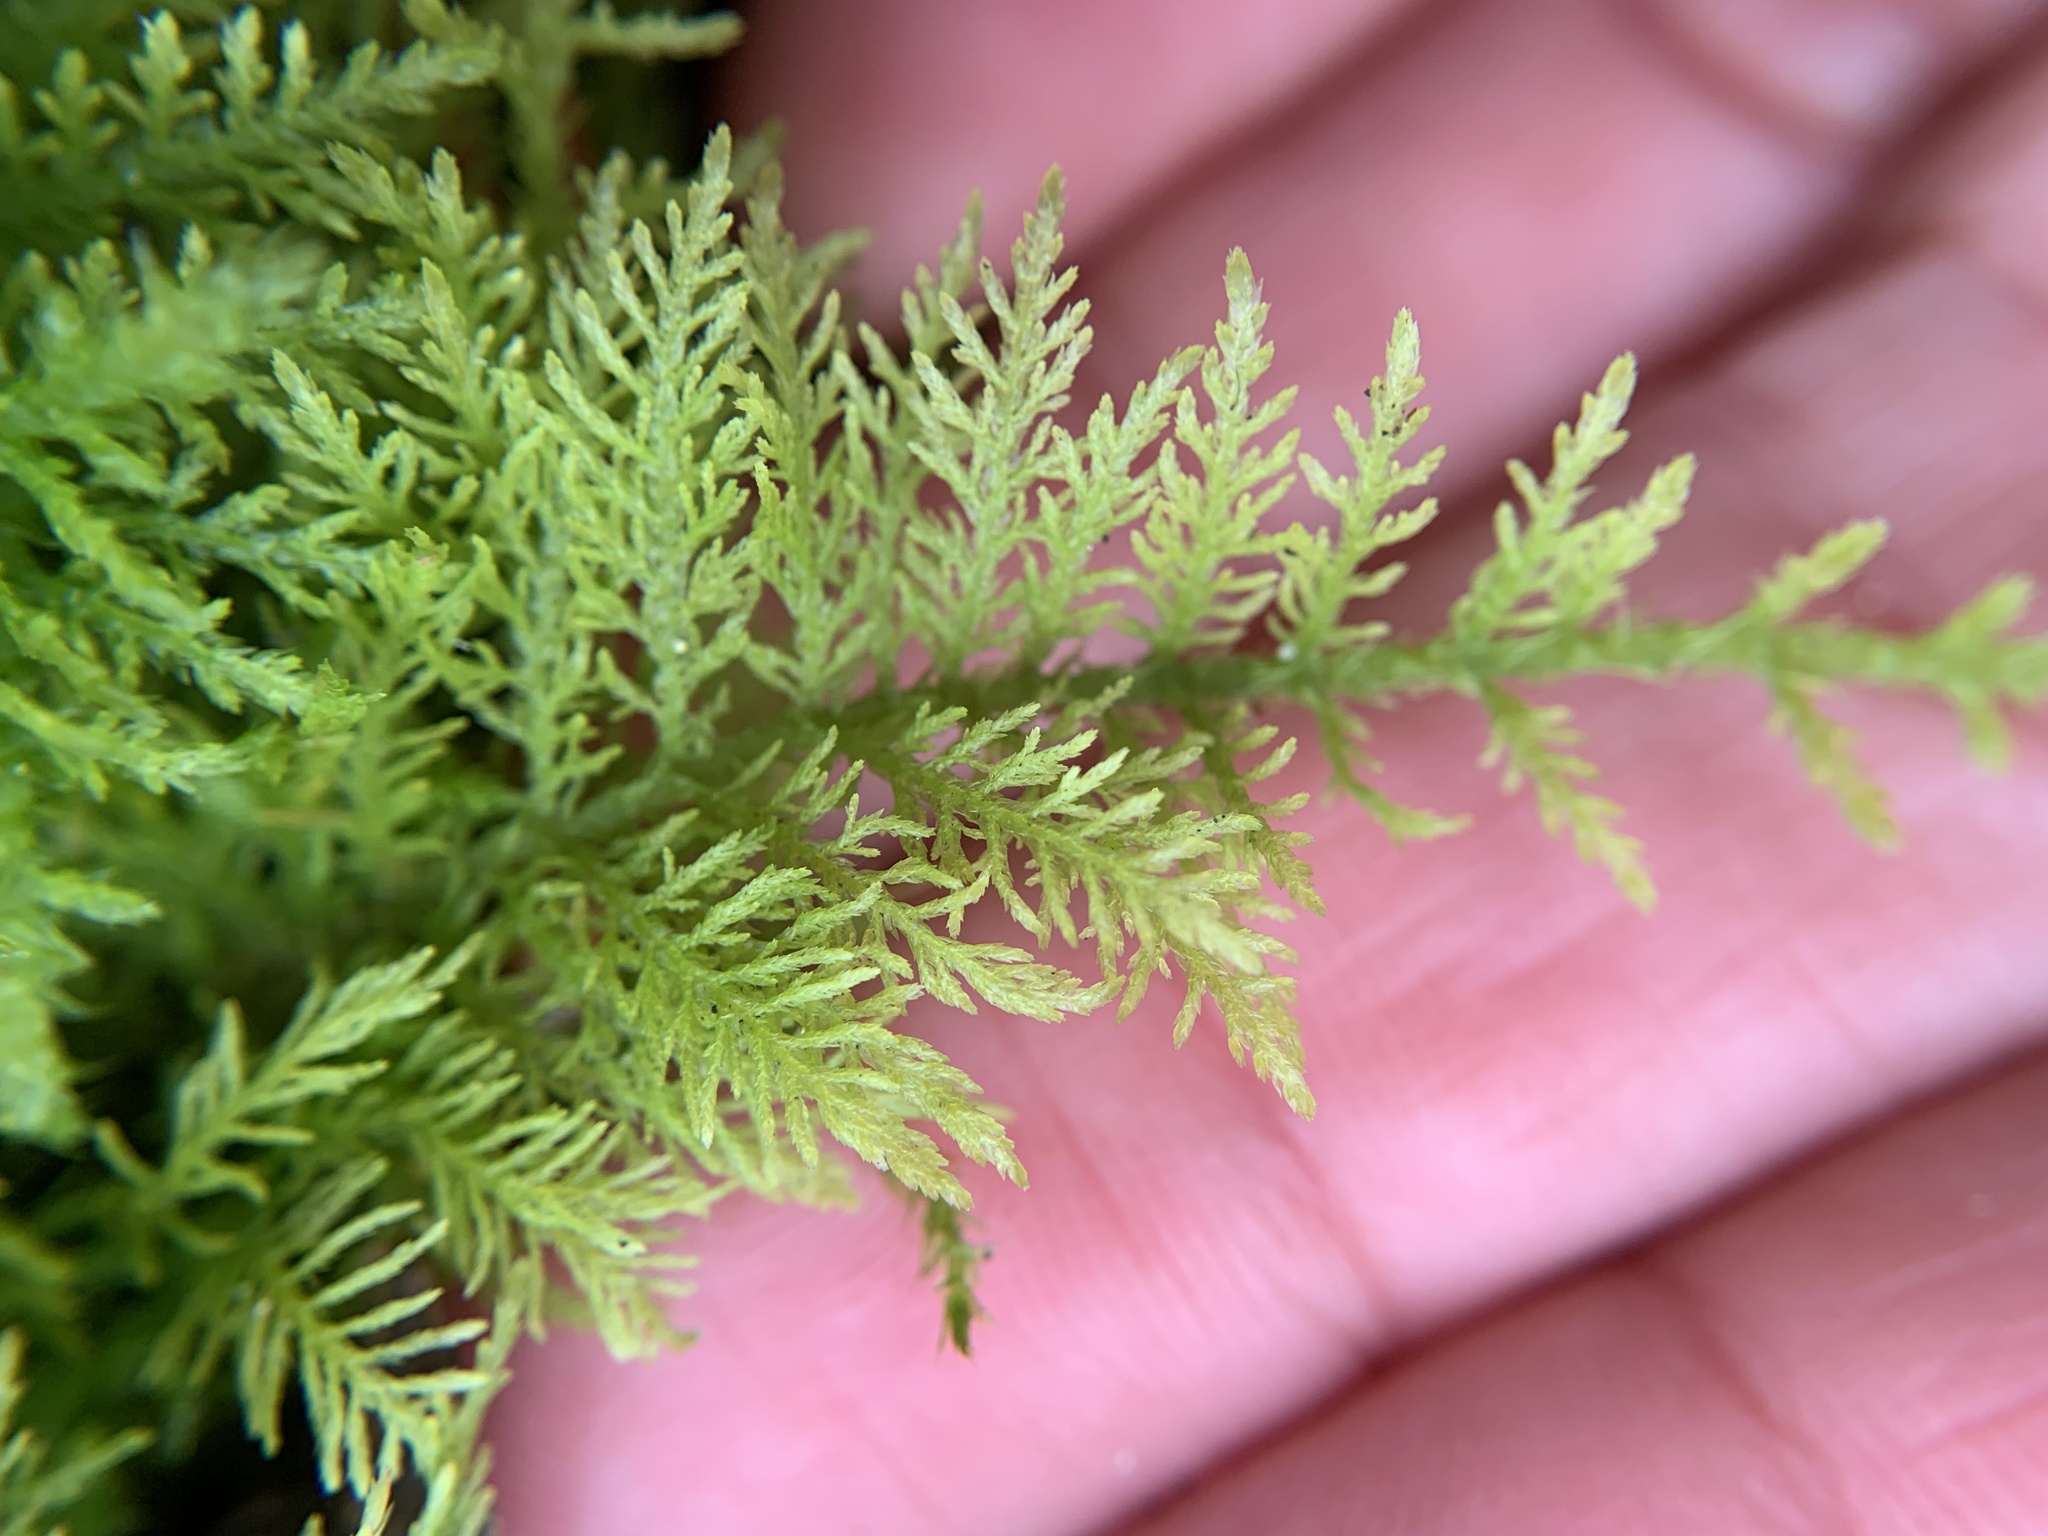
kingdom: Plantae
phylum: Bryophyta
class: Bryopsida
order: Hypnales
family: Thuidiaceae
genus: Thuidium
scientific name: Thuidium tamariscinum
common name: Common tamarisk-moss
